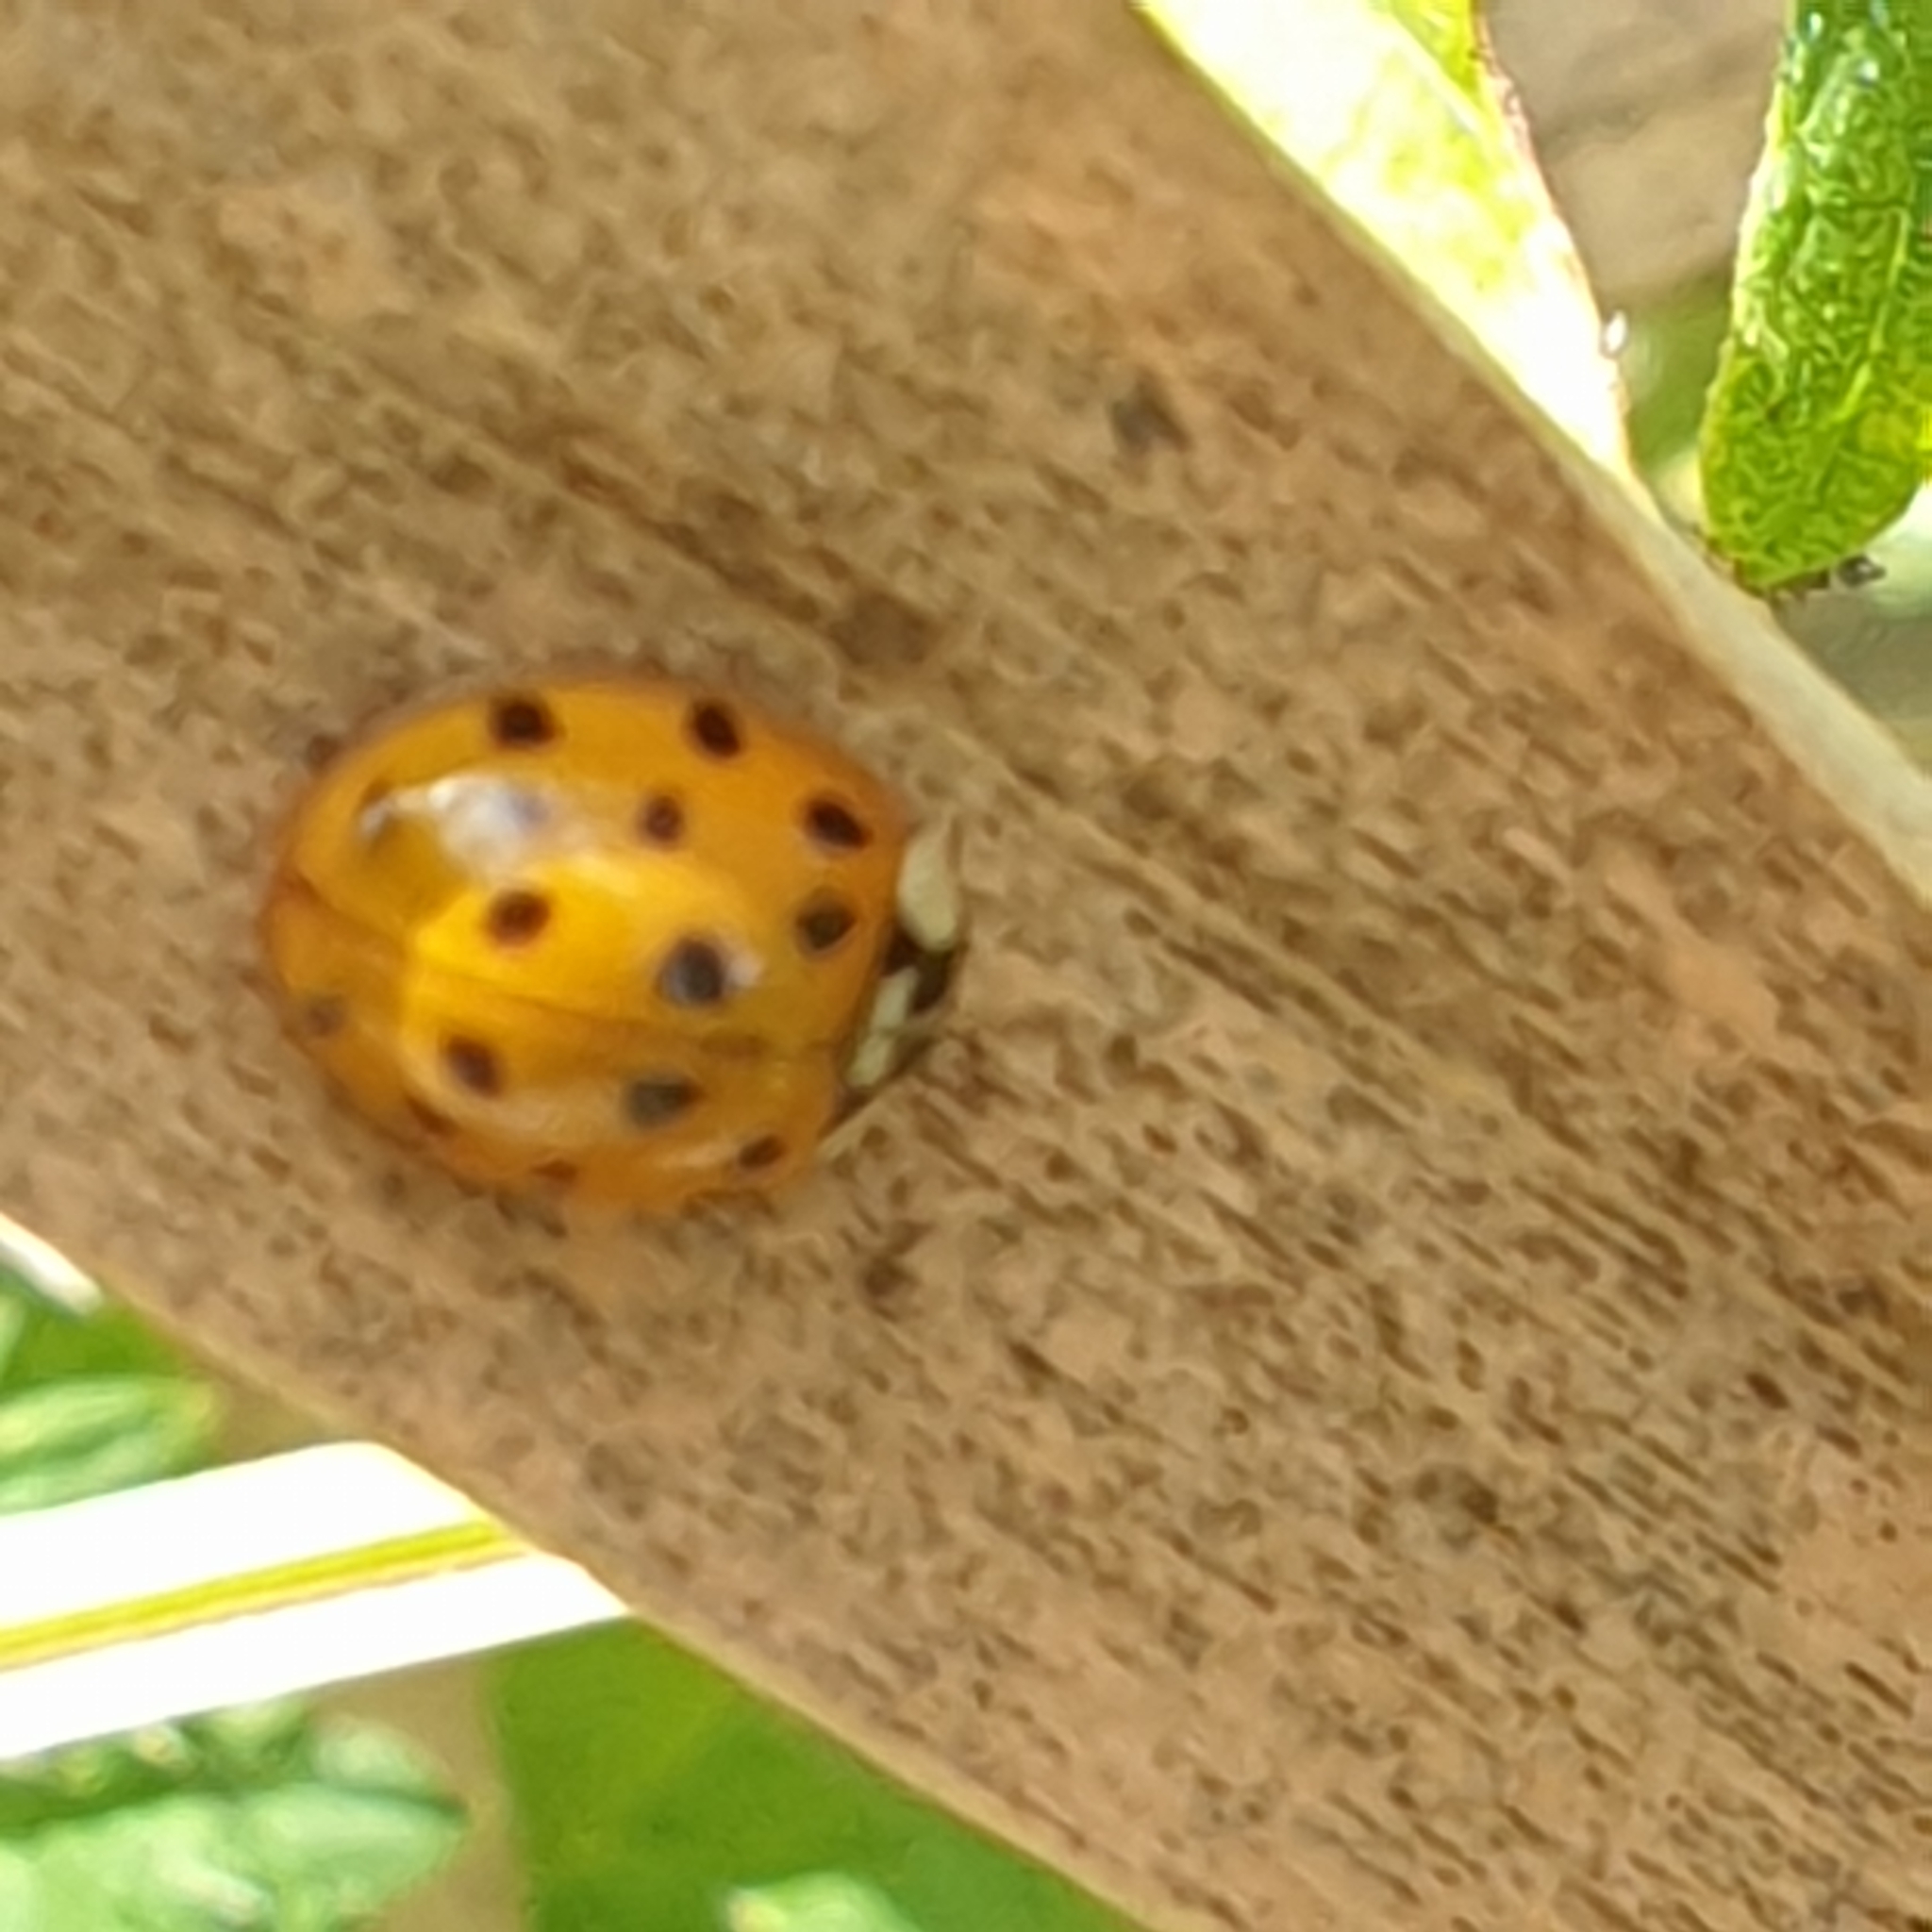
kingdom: Animalia
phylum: Arthropoda
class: Insecta
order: Coleoptera
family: Coccinellidae
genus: Harmonia
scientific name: Harmonia axyridis
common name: Harlequin ladybird
